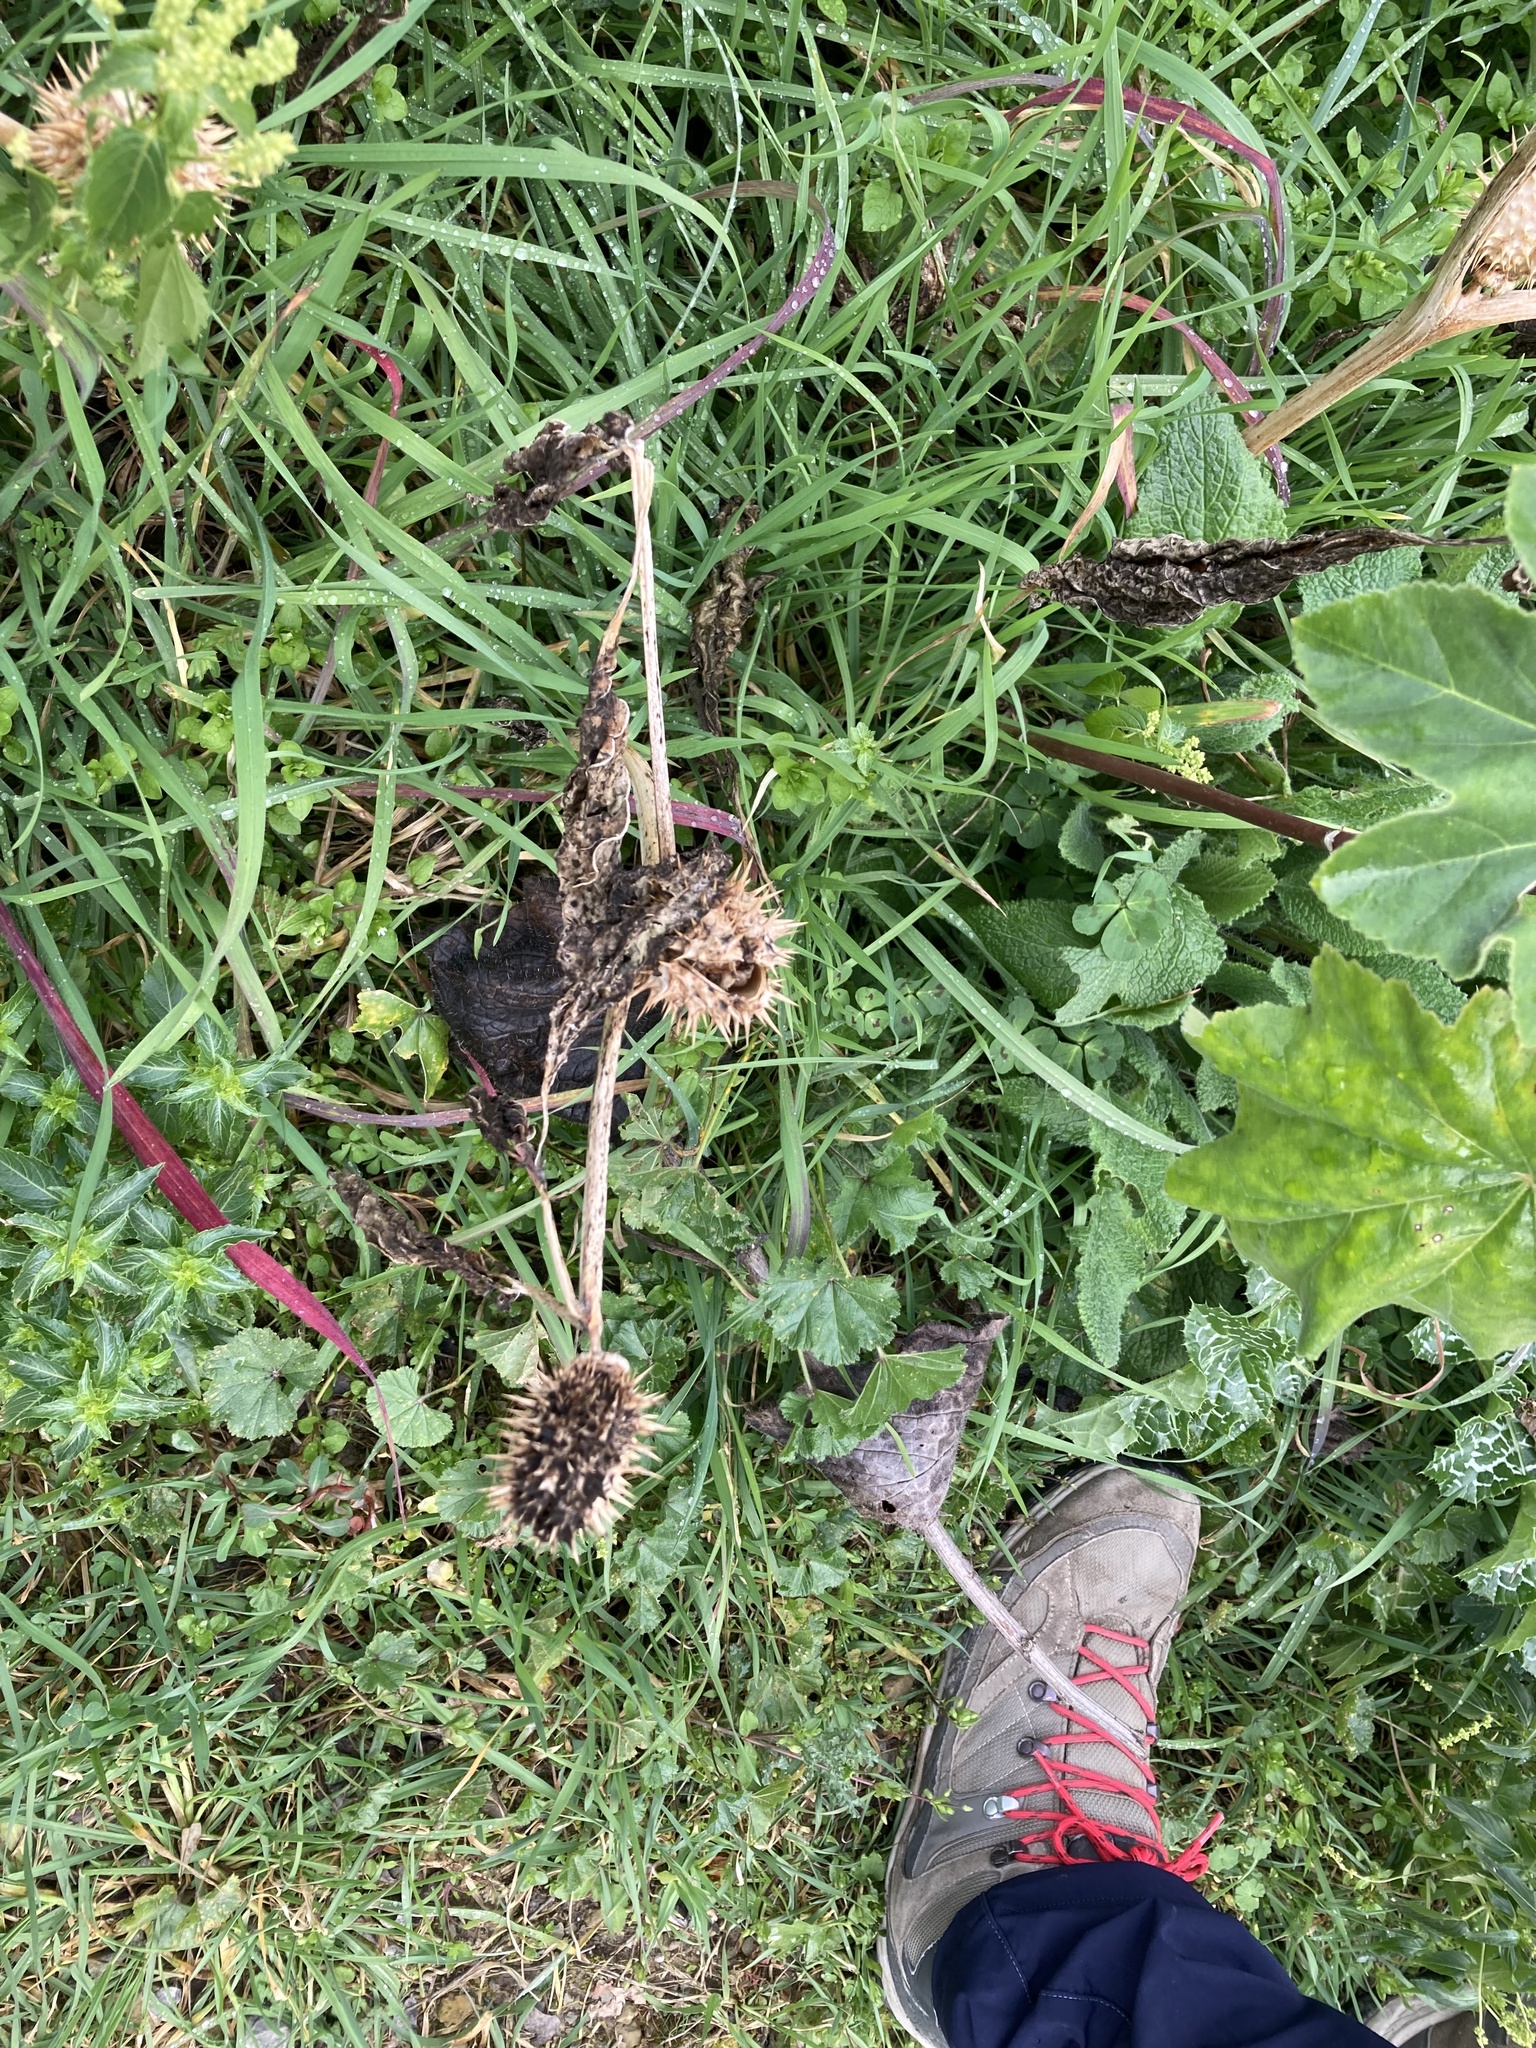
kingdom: Plantae
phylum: Tracheophyta
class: Magnoliopsida
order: Solanales
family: Solanaceae
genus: Datura
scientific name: Datura stramonium
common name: Thorn-apple
